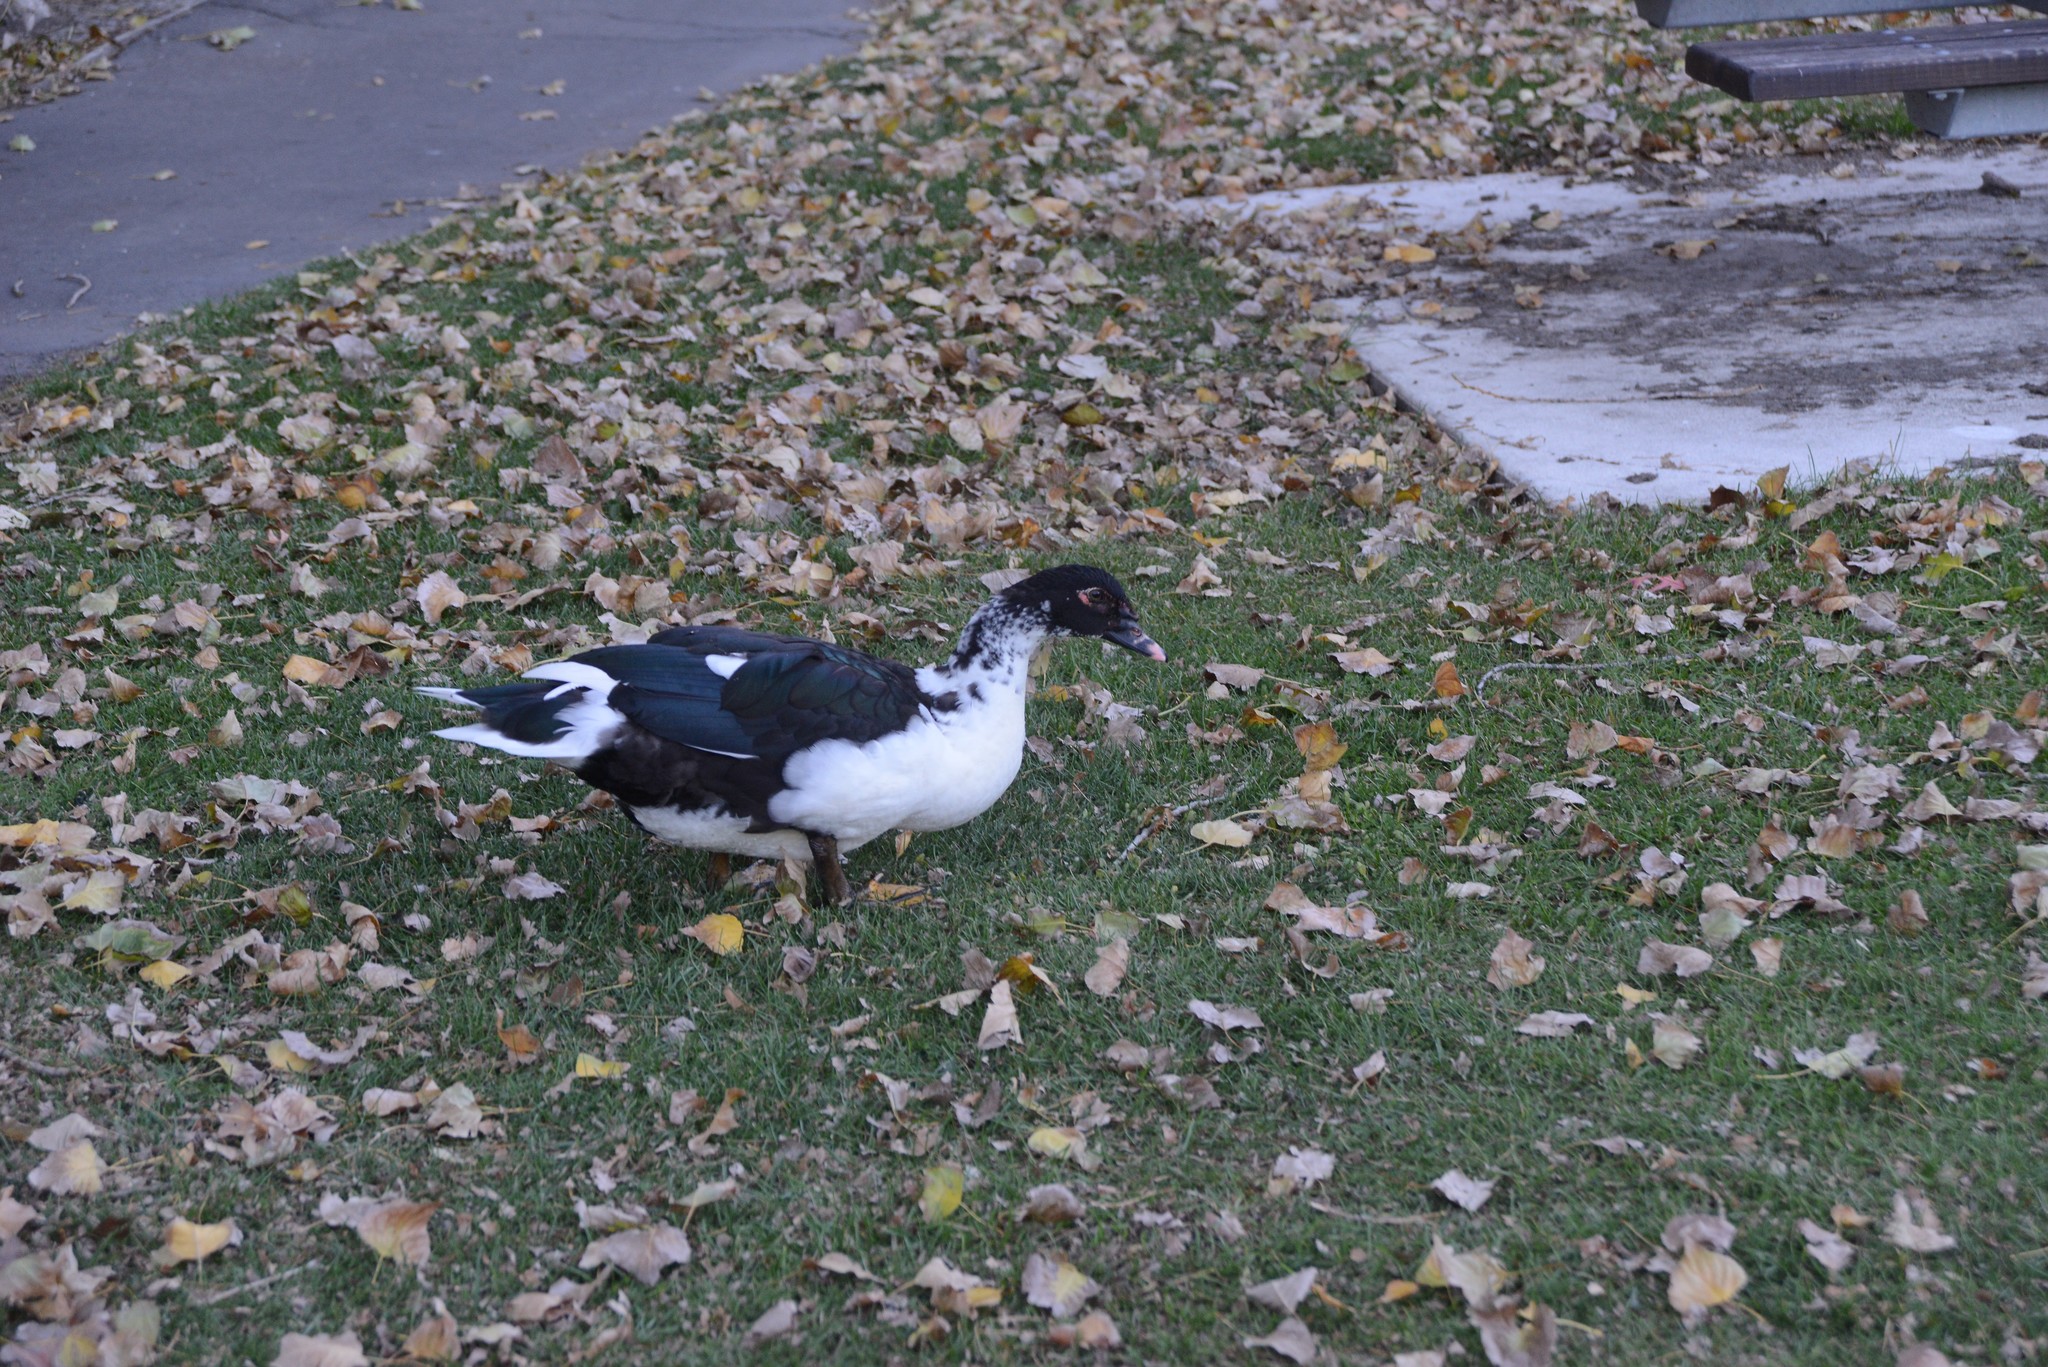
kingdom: Animalia
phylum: Chordata
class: Aves
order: Anseriformes
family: Anatidae
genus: Cairina
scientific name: Cairina moschata
